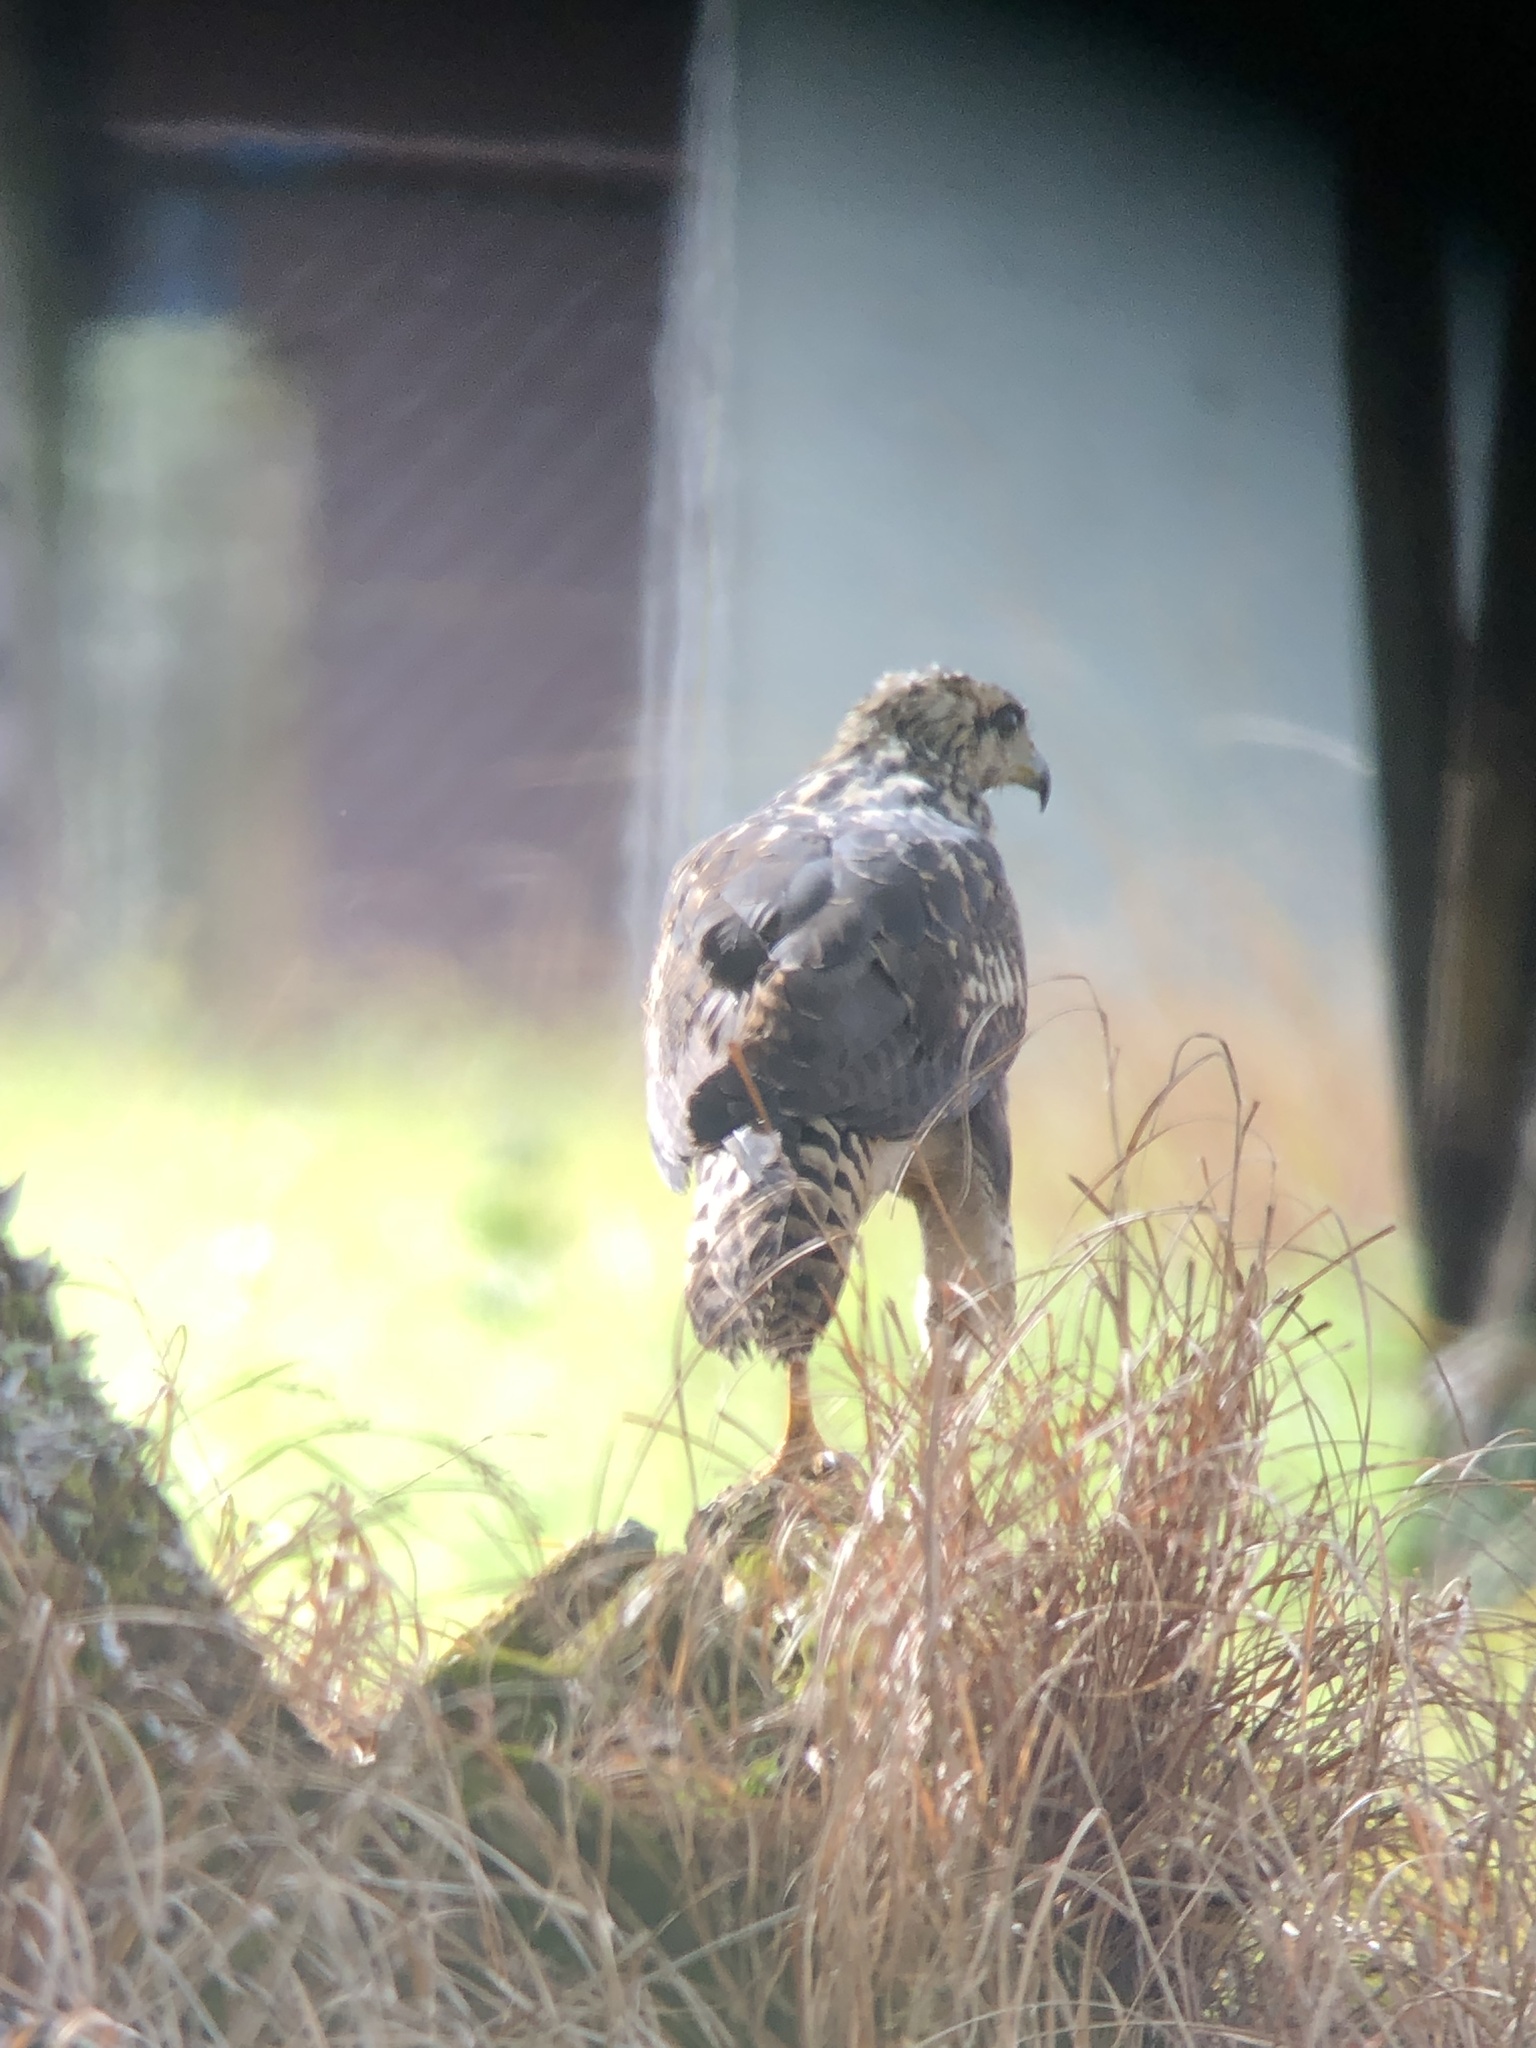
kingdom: Animalia
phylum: Chordata
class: Aves
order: Accipitriformes
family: Accipitridae
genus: Buteogallus
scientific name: Buteogallus meridionalis
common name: Savanna hawk
